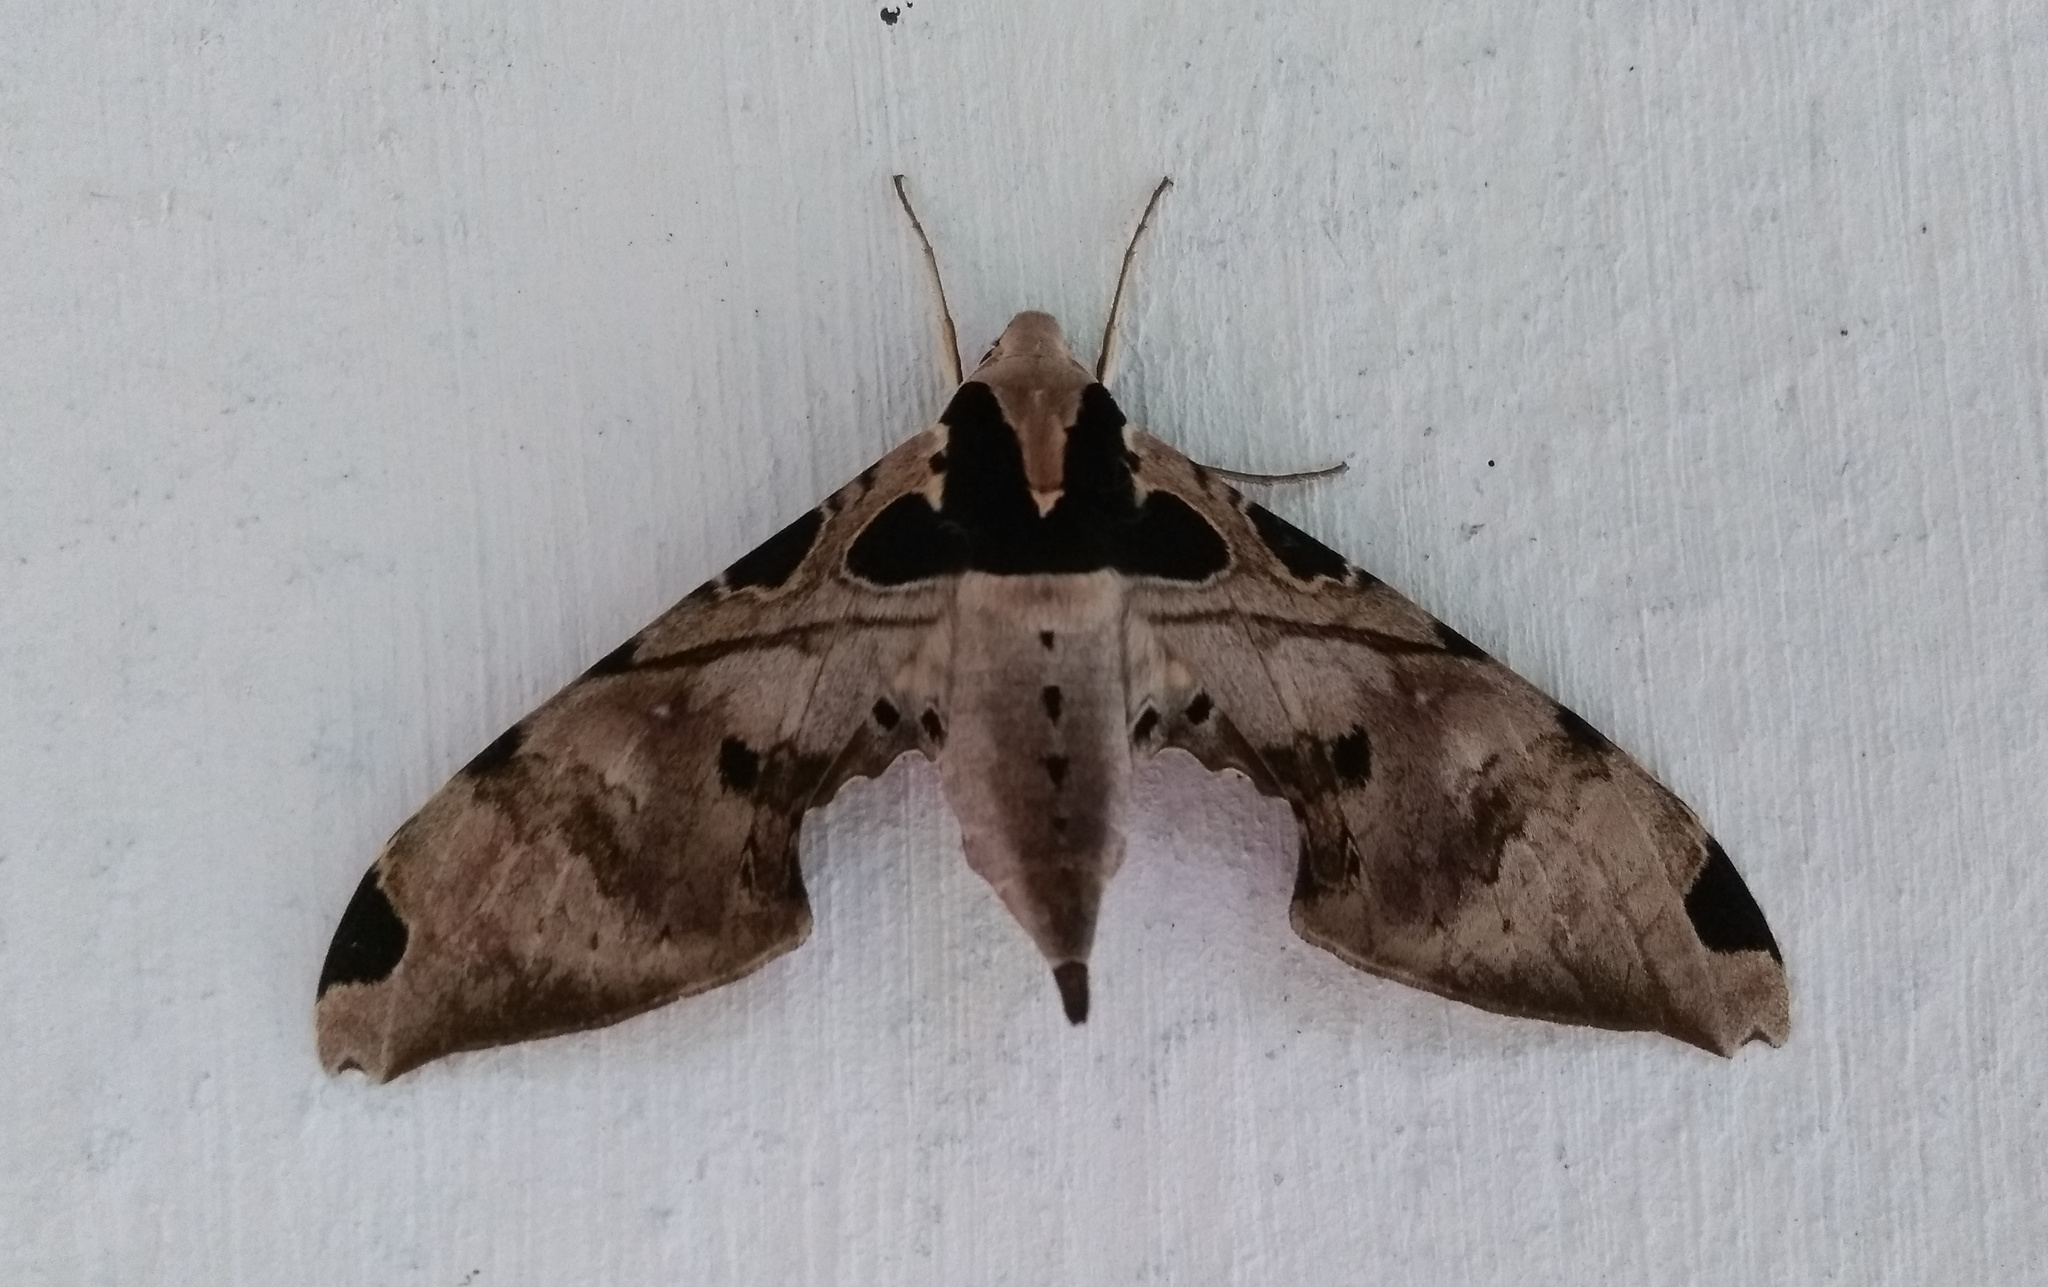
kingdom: Animalia
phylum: Arthropoda
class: Insecta
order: Lepidoptera
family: Sphingidae
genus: Adhemarius
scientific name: Adhemarius palmeri
